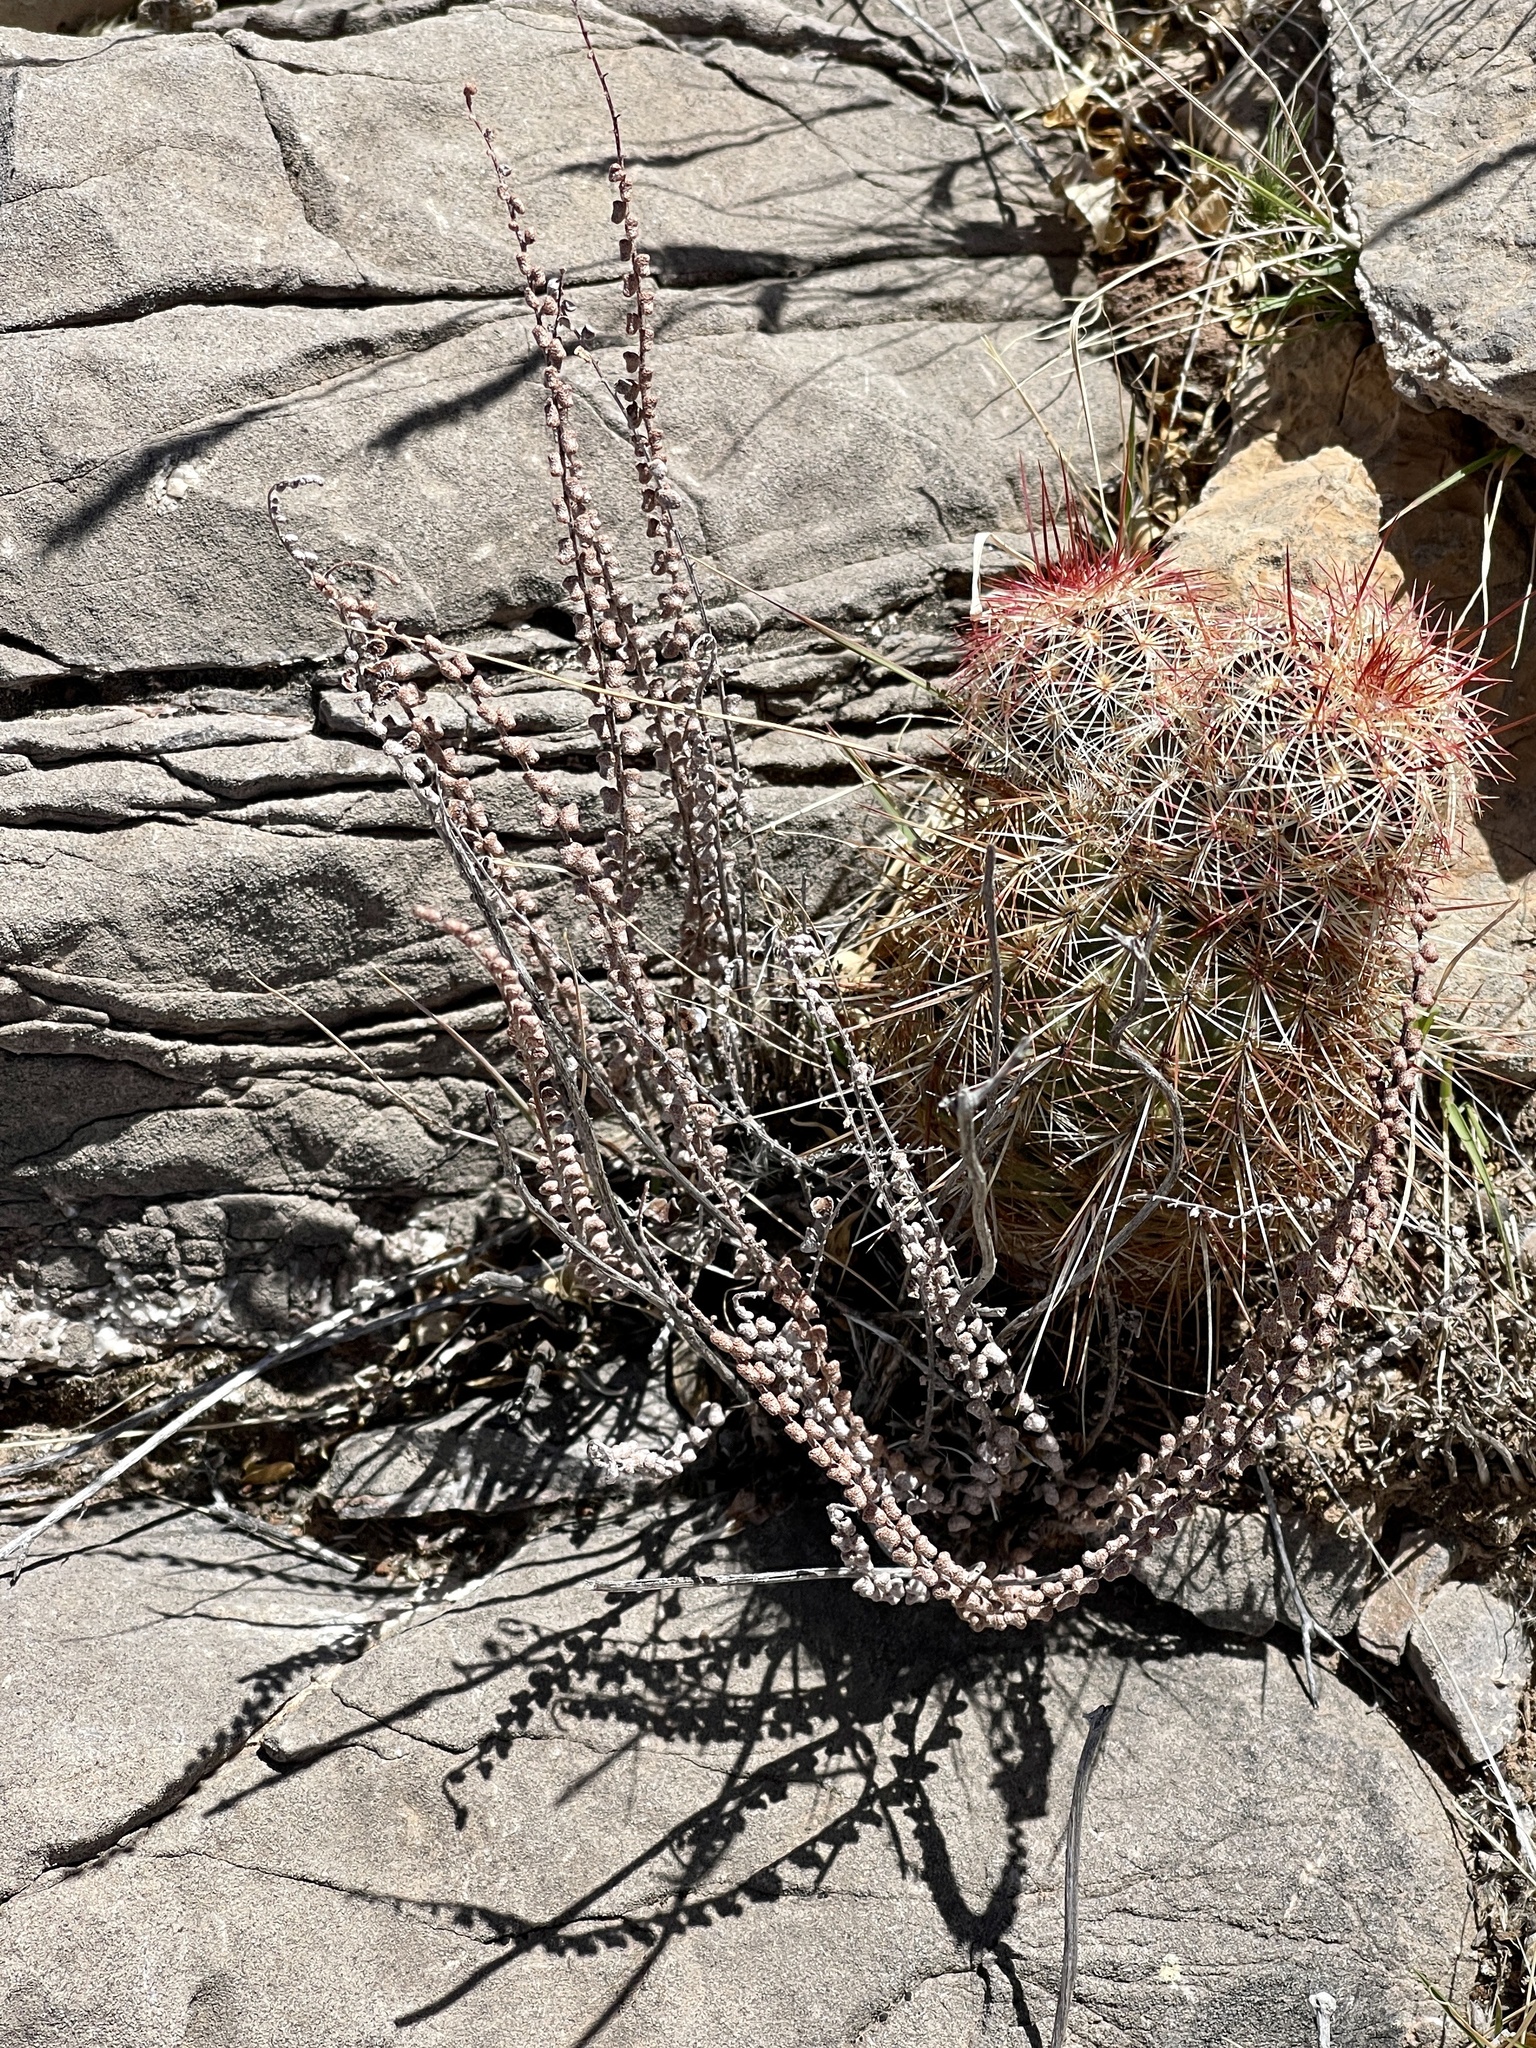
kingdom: Plantae
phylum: Tracheophyta
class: Polypodiopsida
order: Polypodiales
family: Pteridaceae
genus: Astrolepis
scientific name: Astrolepis cochisensis
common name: Scaly cloak fern
